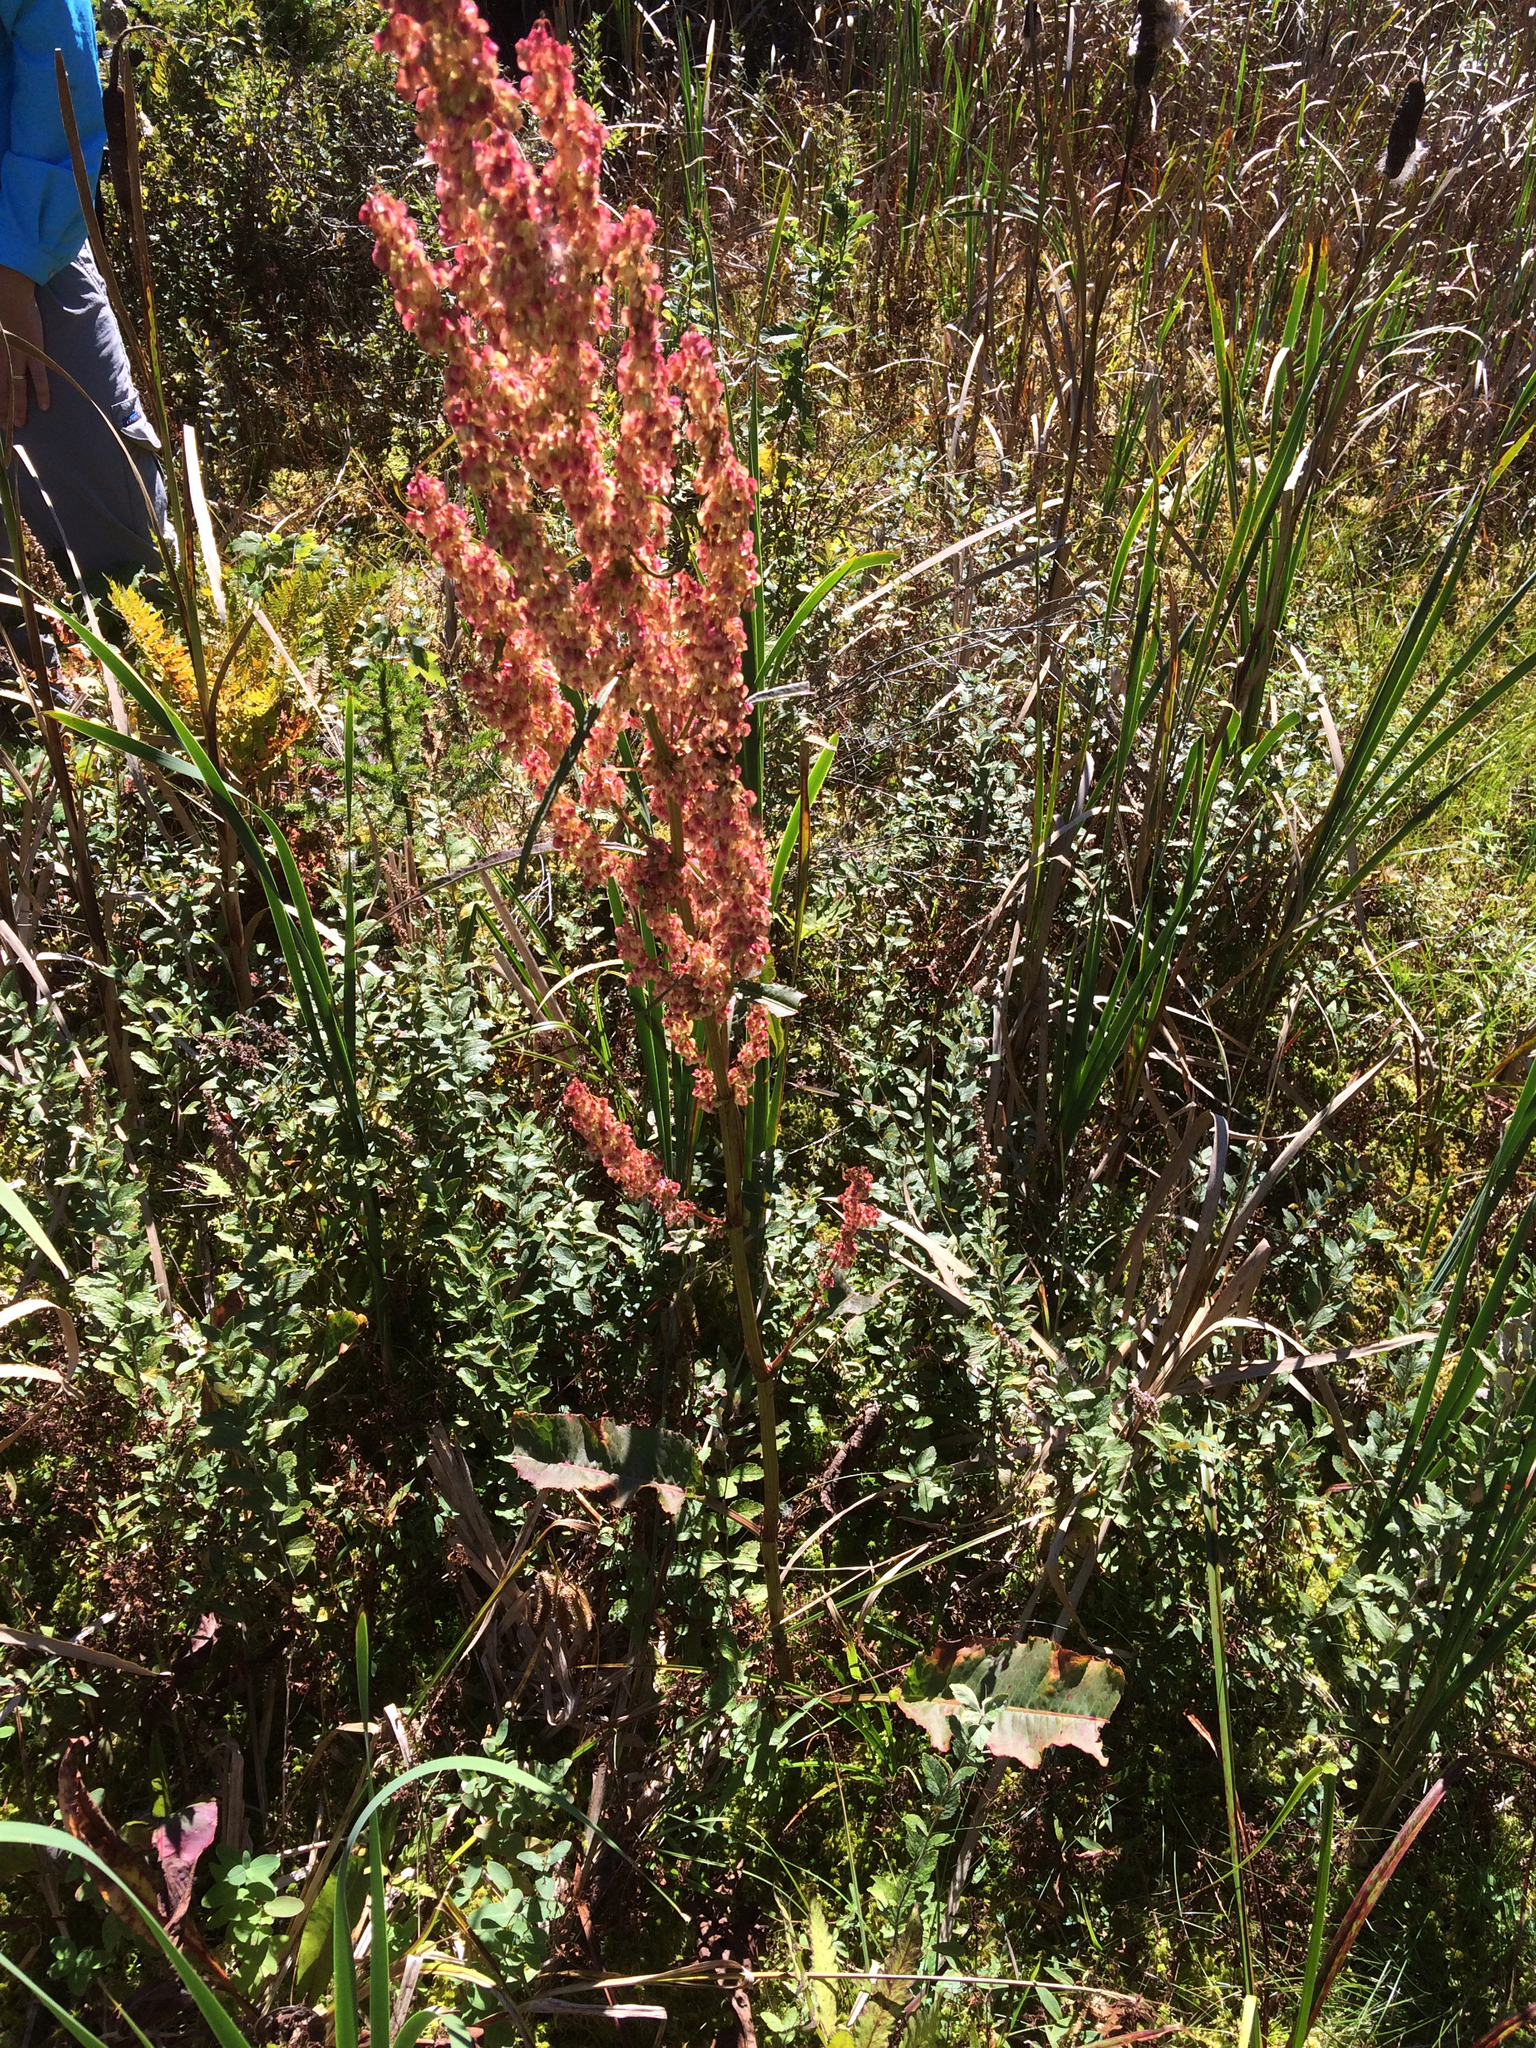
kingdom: Plantae
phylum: Tracheophyta
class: Magnoliopsida
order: Caryophyllales
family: Polygonaceae
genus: Rumex
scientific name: Rumex obtusifolius
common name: Bitter dock
